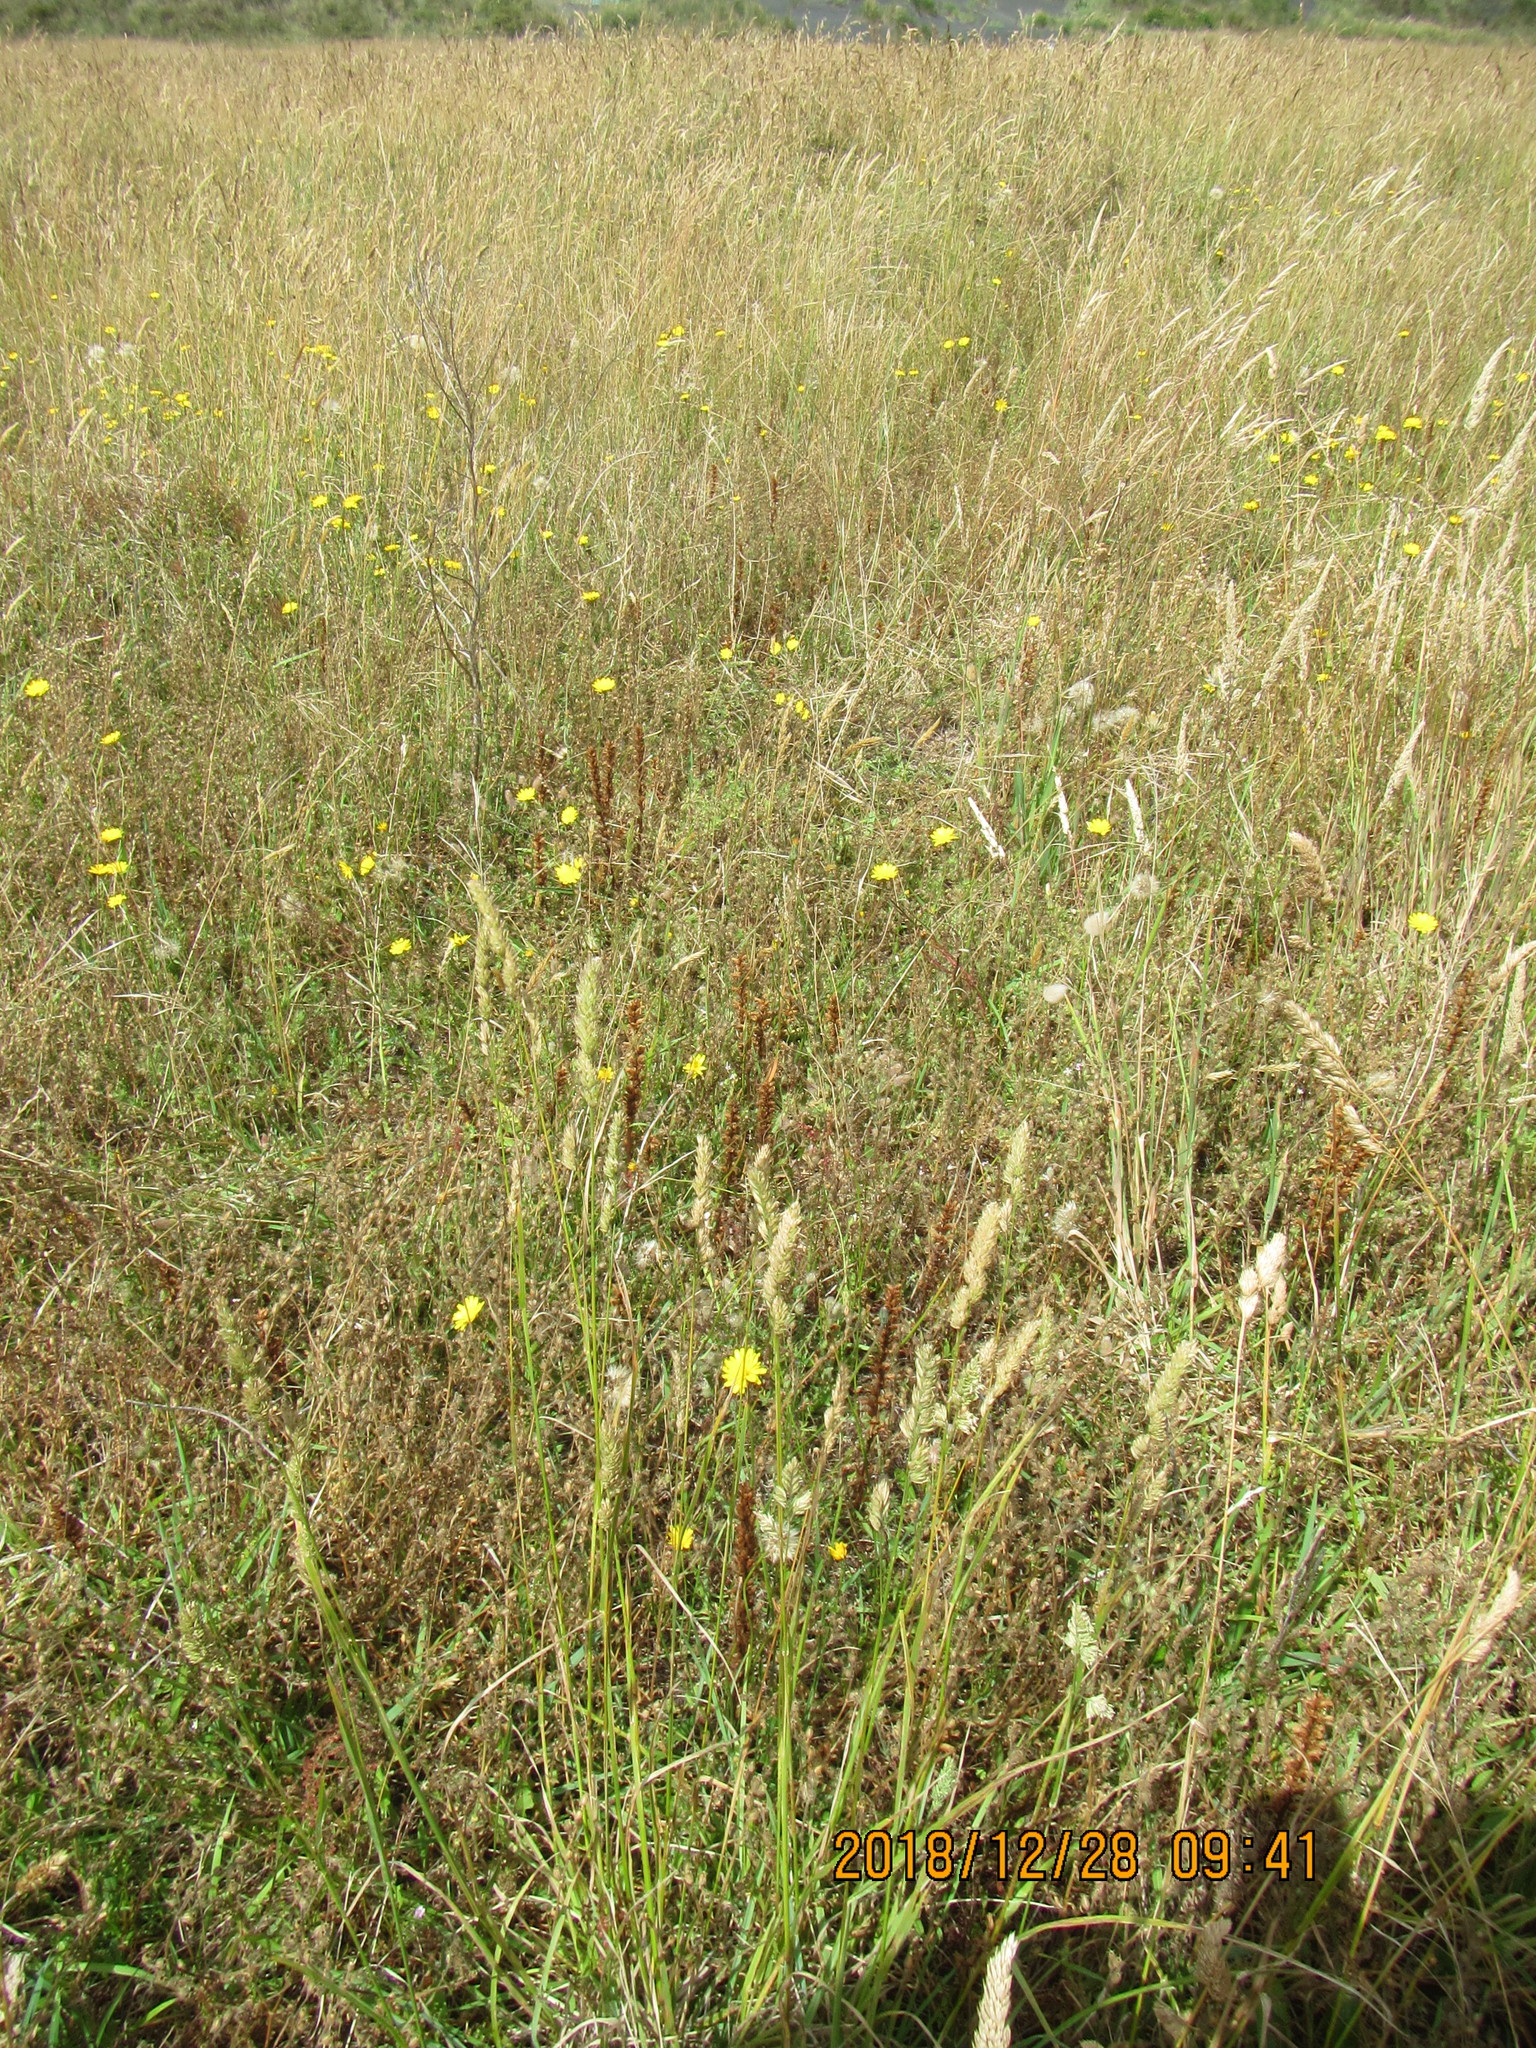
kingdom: Plantae
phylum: Tracheophyta
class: Magnoliopsida
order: Lamiales
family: Orobanchaceae
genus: Orobanche
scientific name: Orobanche minor
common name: Common broomrape
